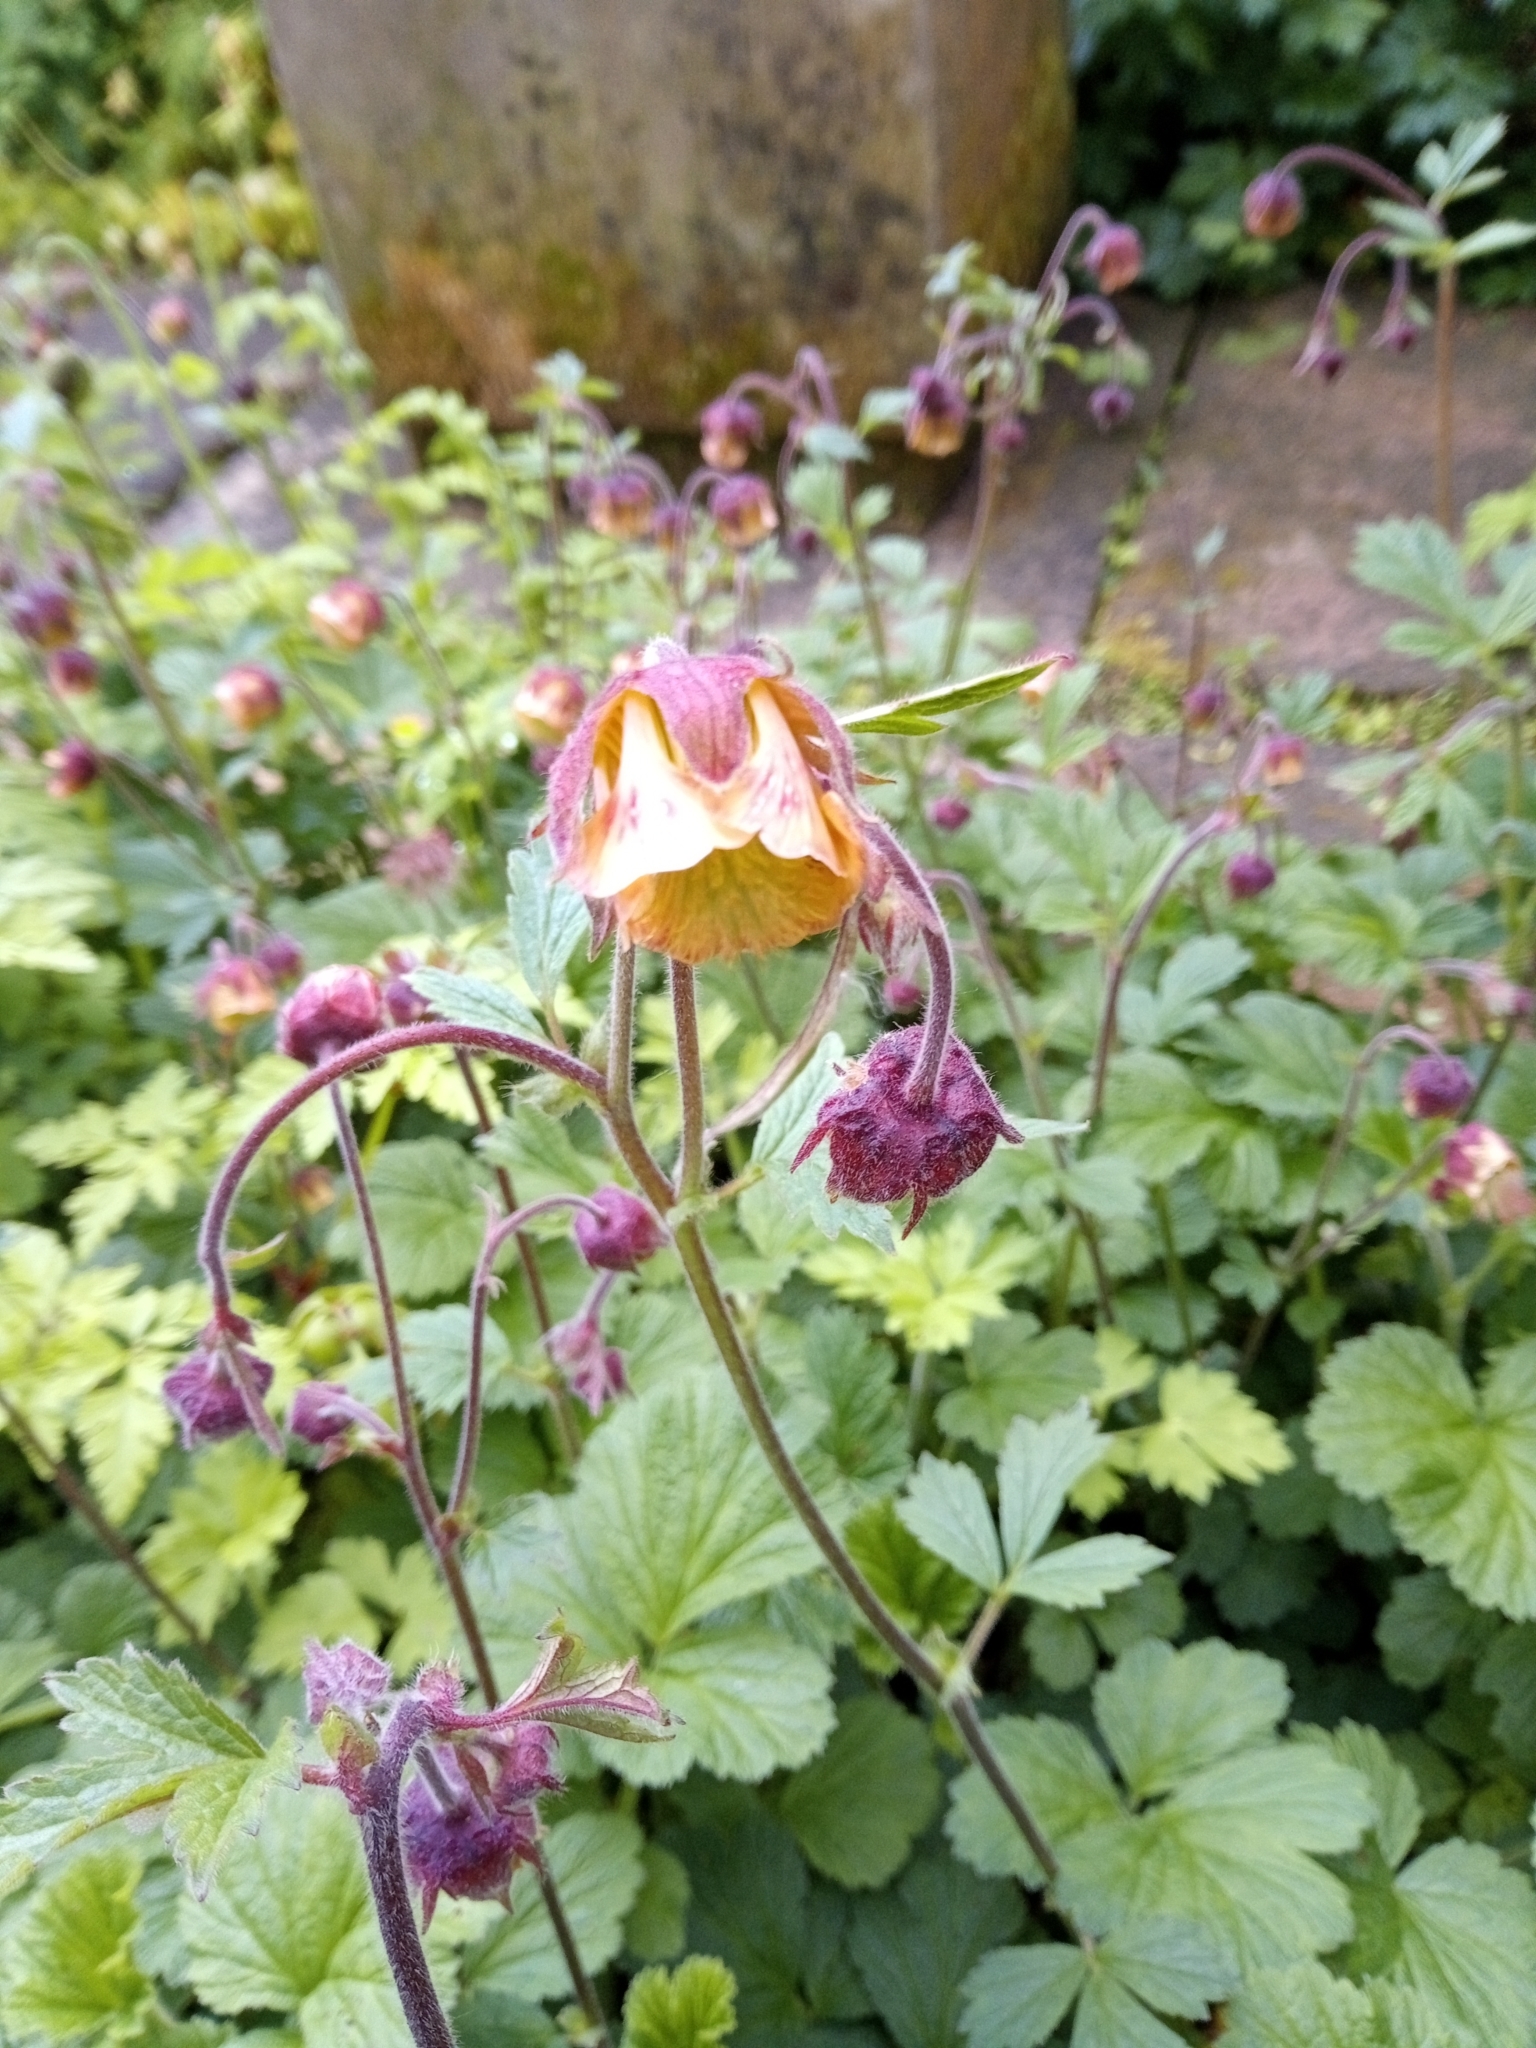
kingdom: Plantae
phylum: Tracheophyta
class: Magnoliopsida
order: Rosales
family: Rosaceae
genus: Geum
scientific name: Geum rivale
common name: Water avens
